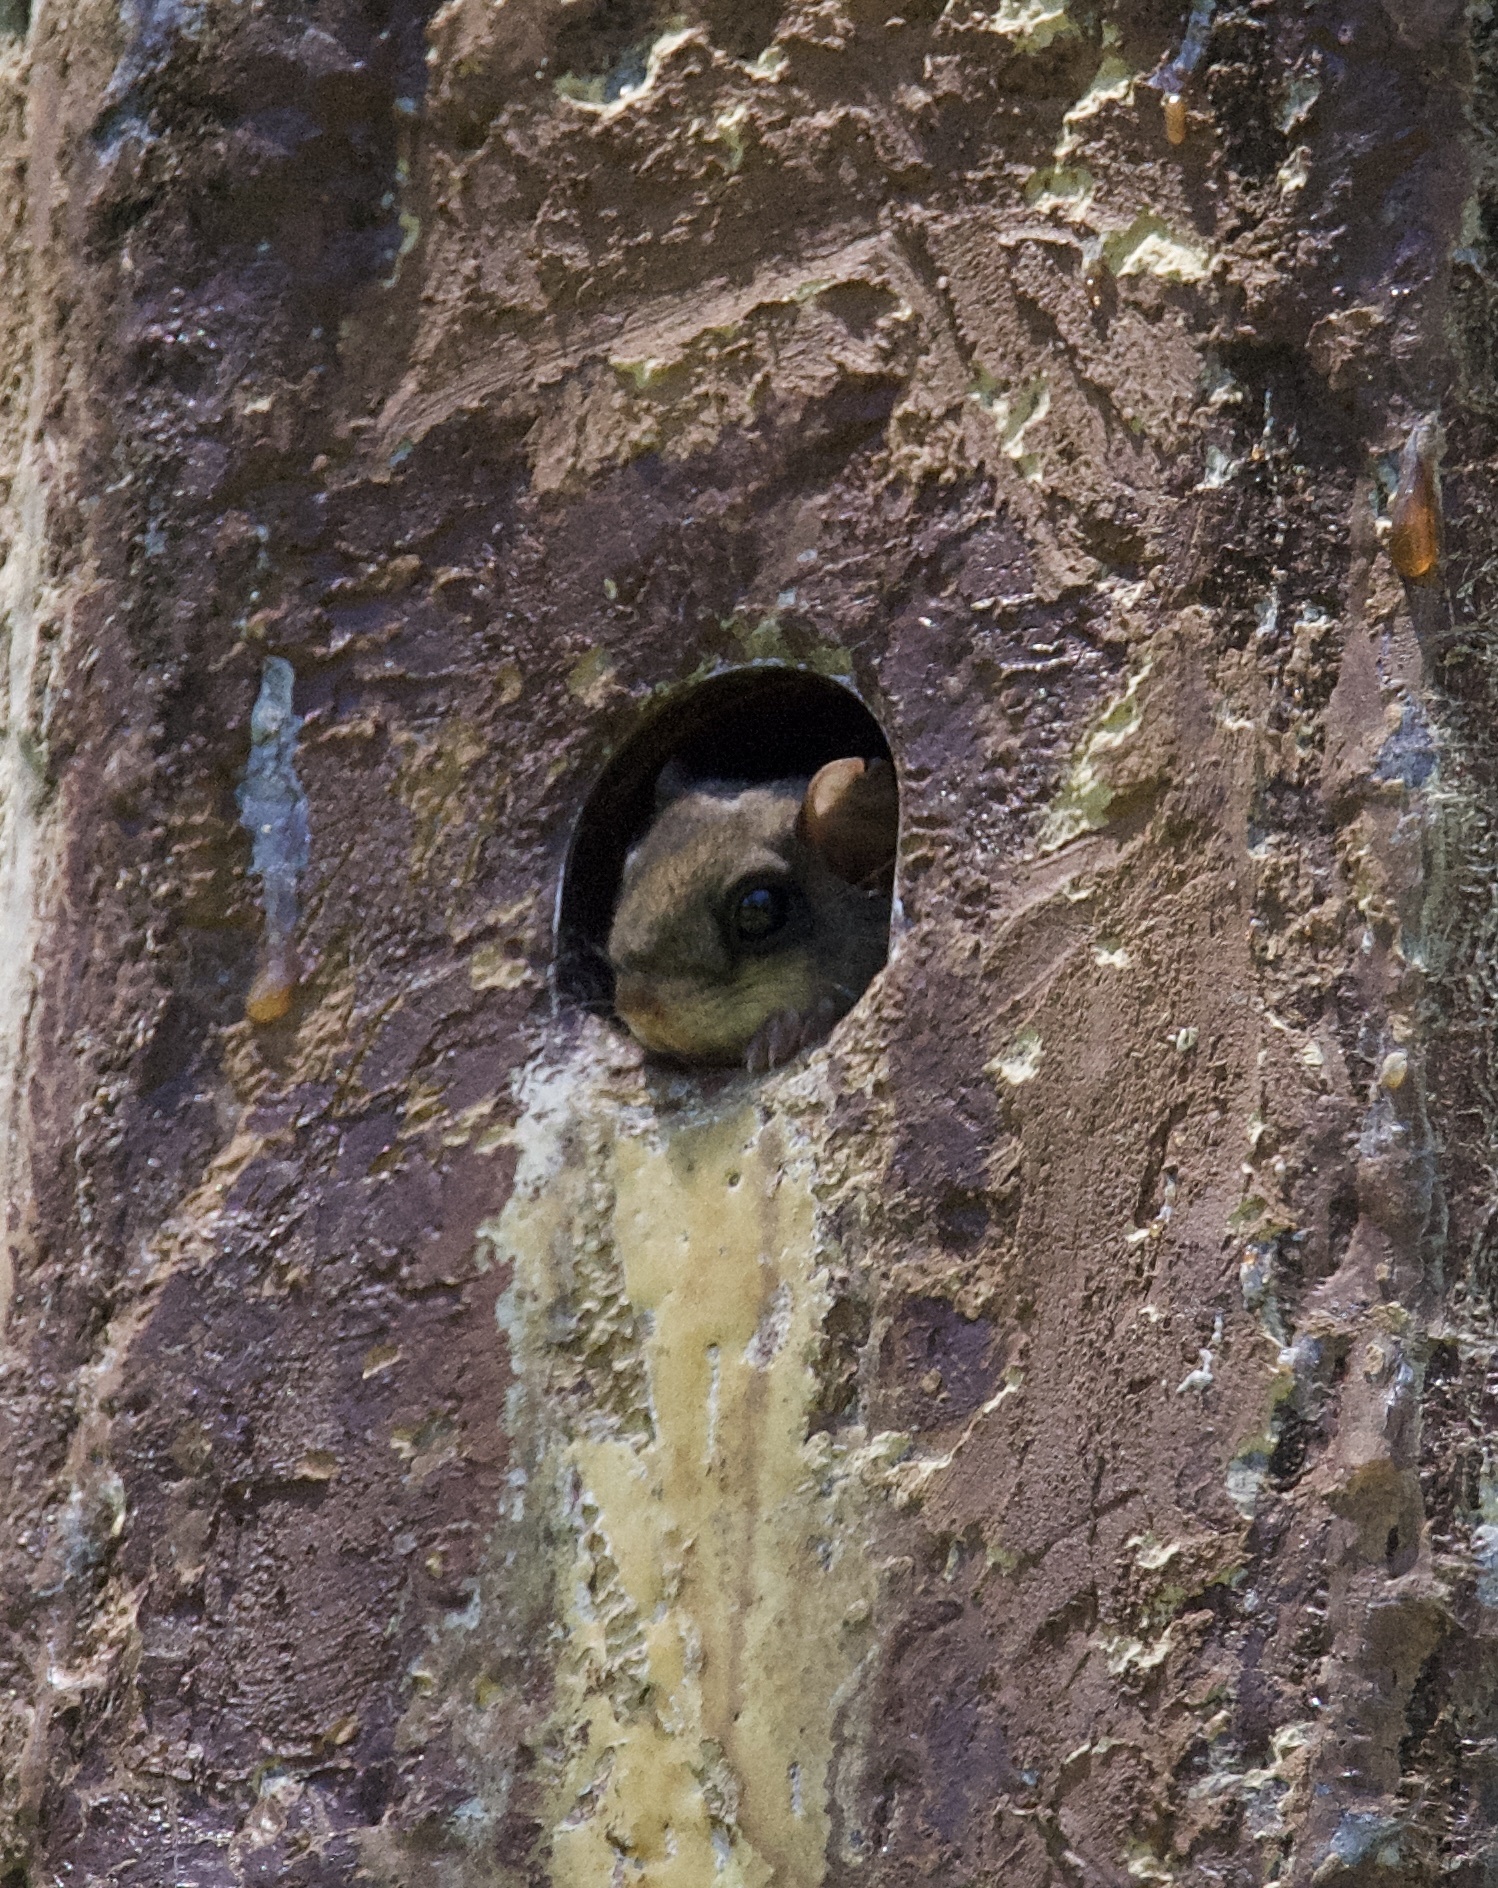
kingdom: Animalia
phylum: Chordata
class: Mammalia
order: Rodentia
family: Sciuridae
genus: Glaucomys
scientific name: Glaucomys volans
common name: Southern flying squirrel
